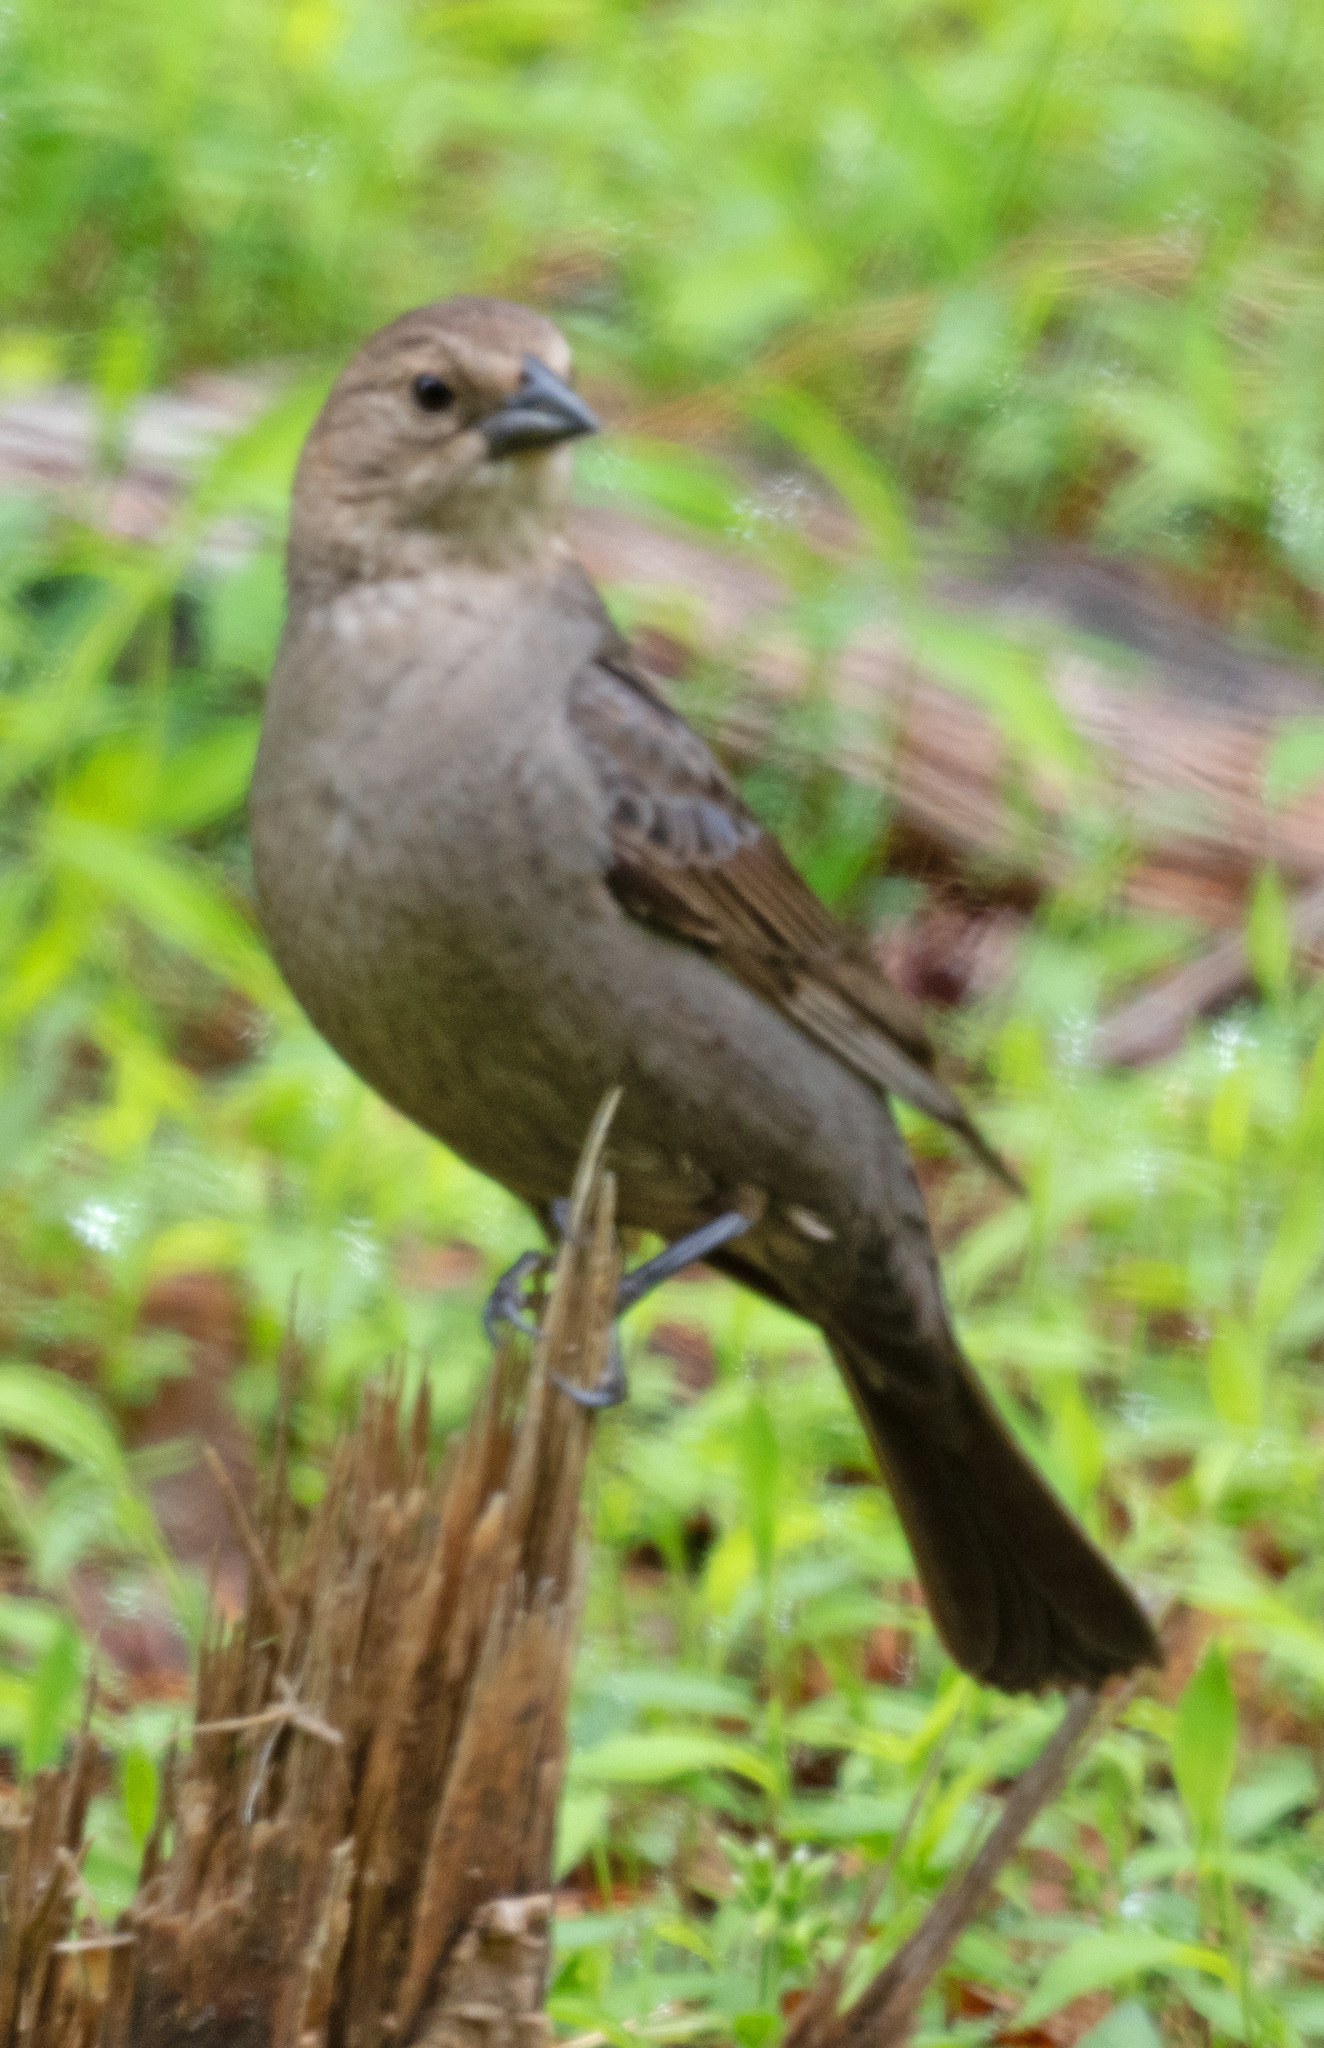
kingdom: Animalia
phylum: Chordata
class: Aves
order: Passeriformes
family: Icteridae
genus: Molothrus
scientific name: Molothrus ater
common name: Brown-headed cowbird
